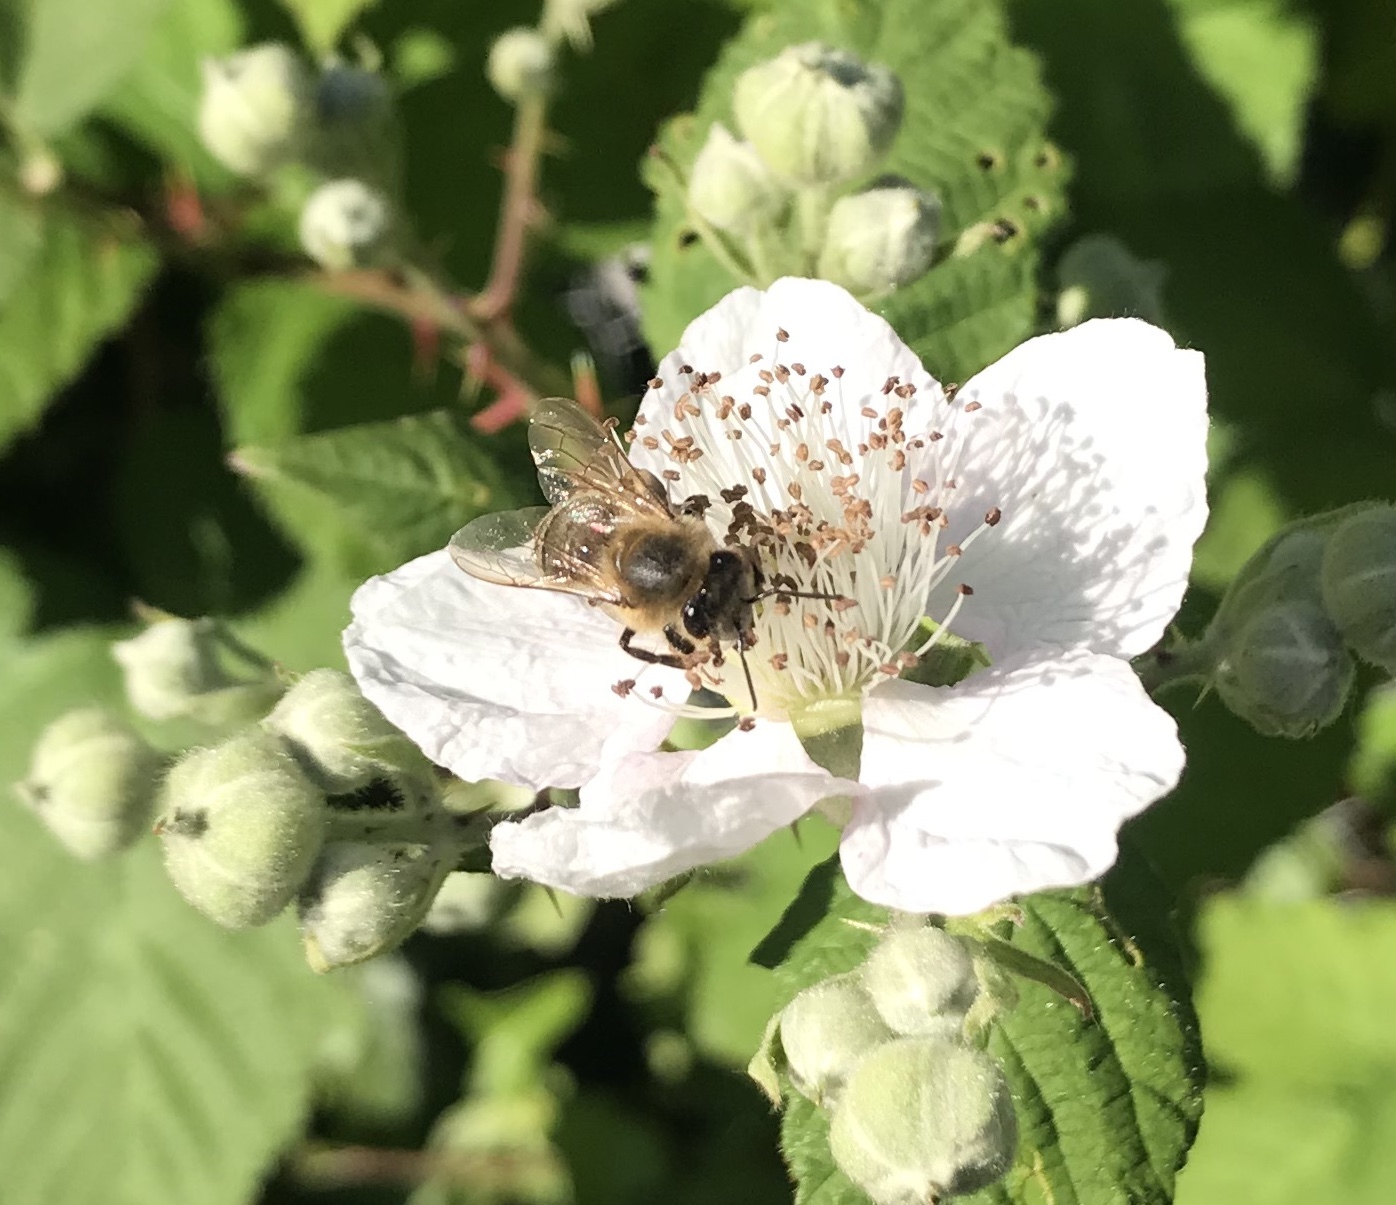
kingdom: Animalia
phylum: Arthropoda
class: Insecta
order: Hymenoptera
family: Apidae
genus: Apis
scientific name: Apis mellifera
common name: Honey bee
